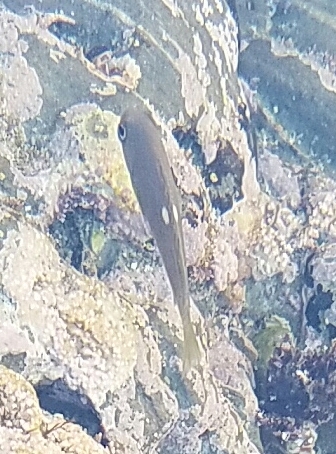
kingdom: Animalia
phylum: Chordata
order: Perciformes
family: Kyphosidae
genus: Girella
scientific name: Girella nigricans
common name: Opaleye
